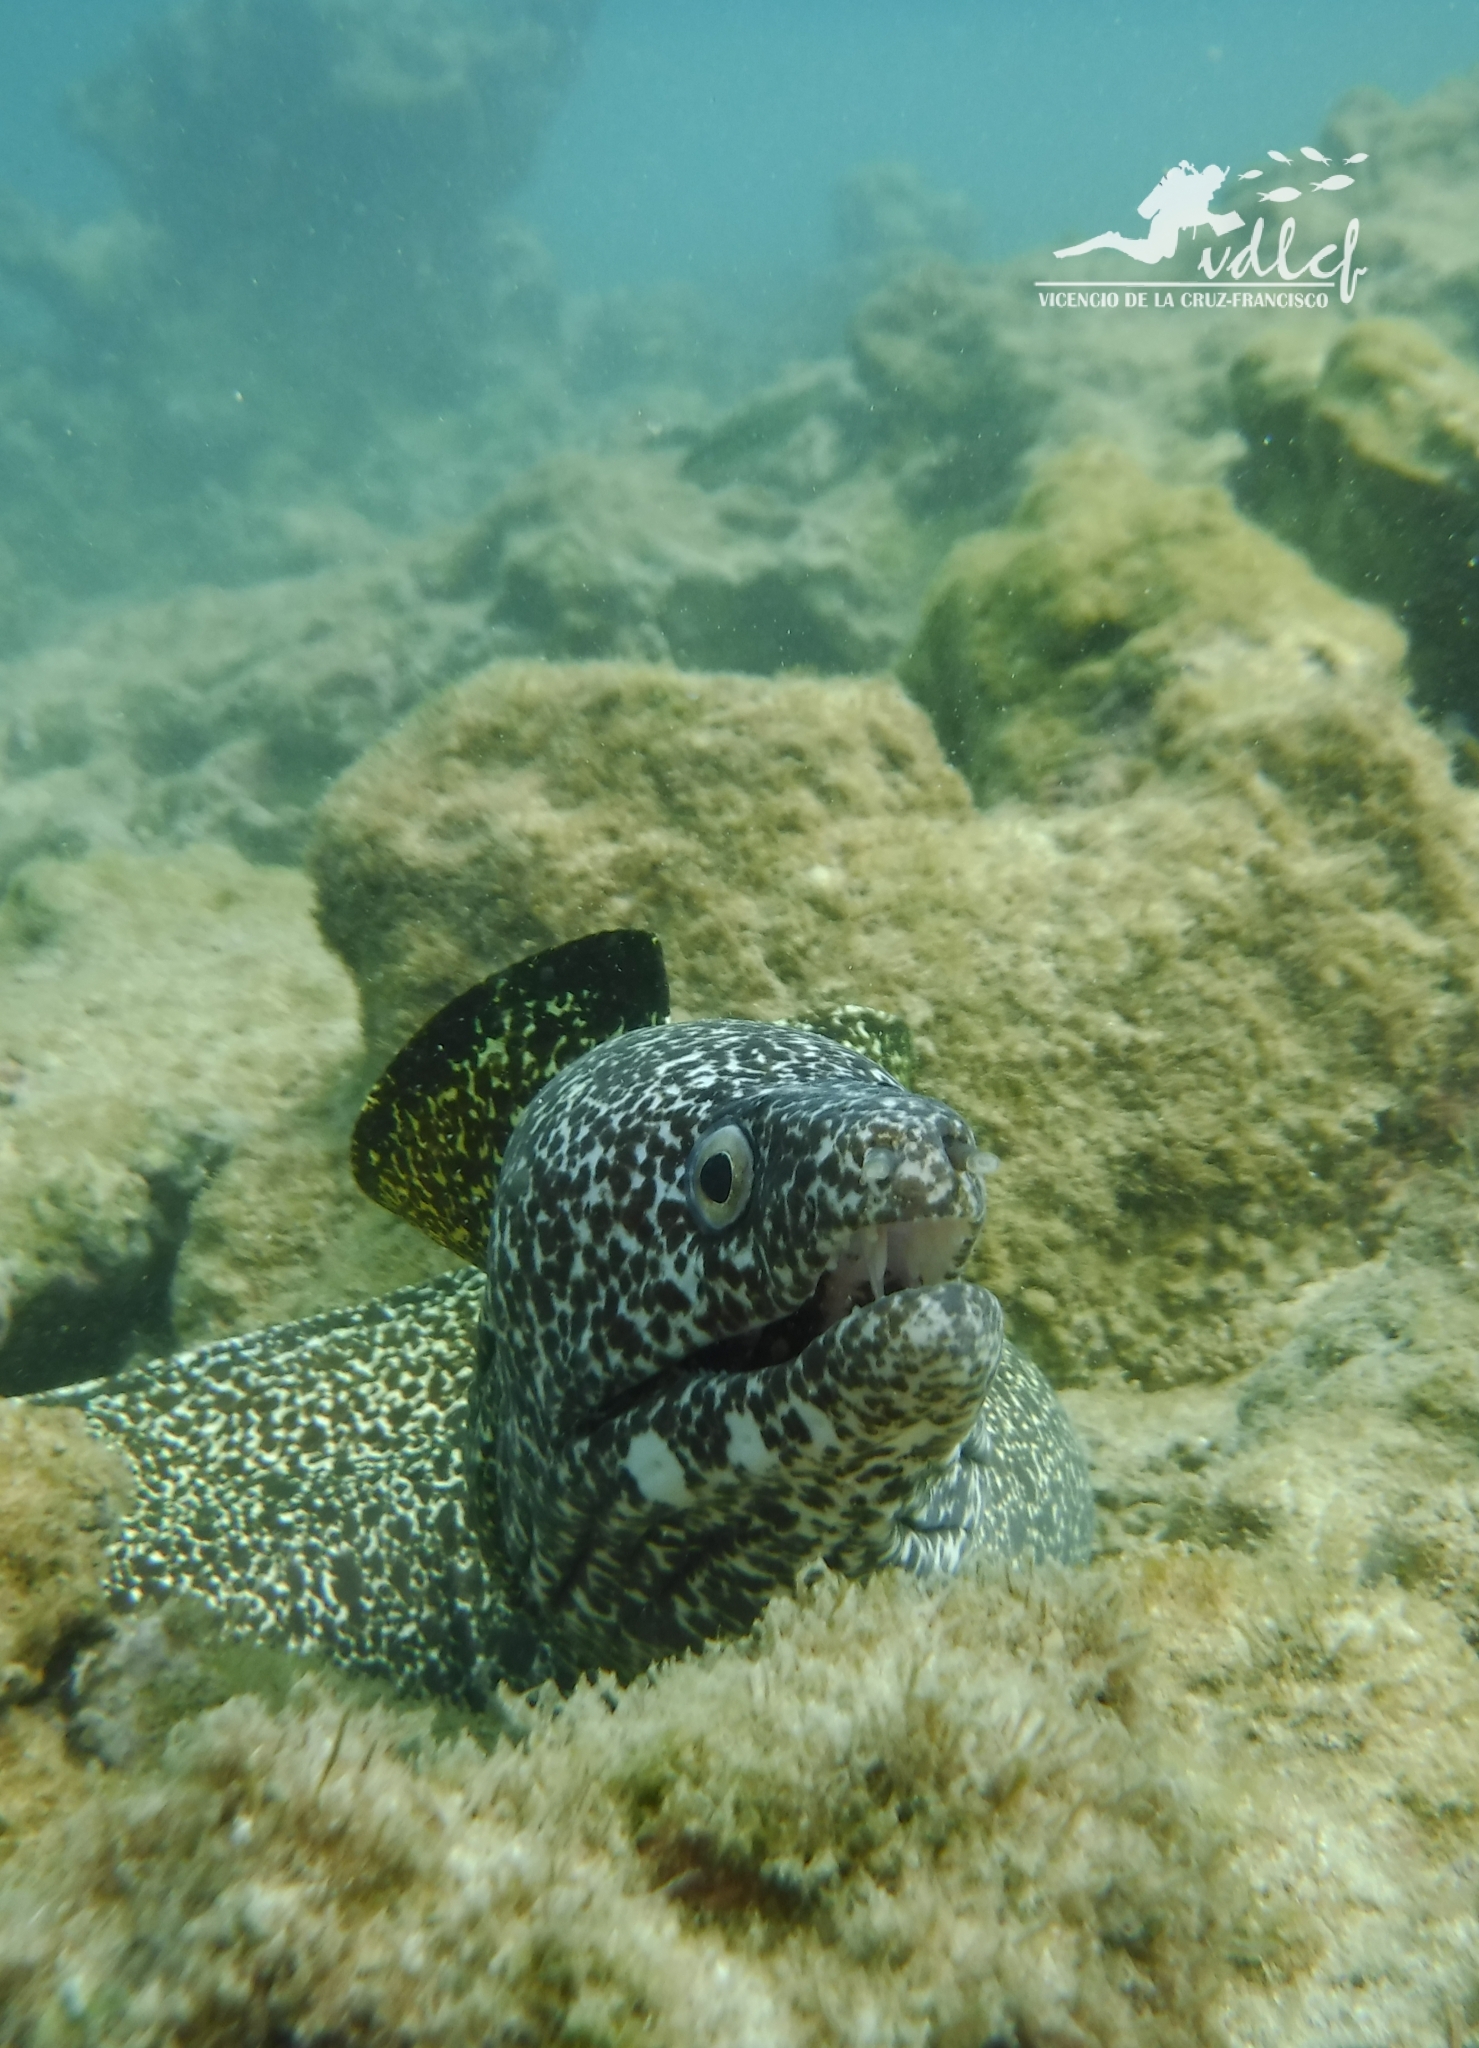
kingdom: Animalia
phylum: Chordata
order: Anguilliformes
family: Muraenidae
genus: Gymnothorax
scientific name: Gymnothorax moringa
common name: Spotted moray
